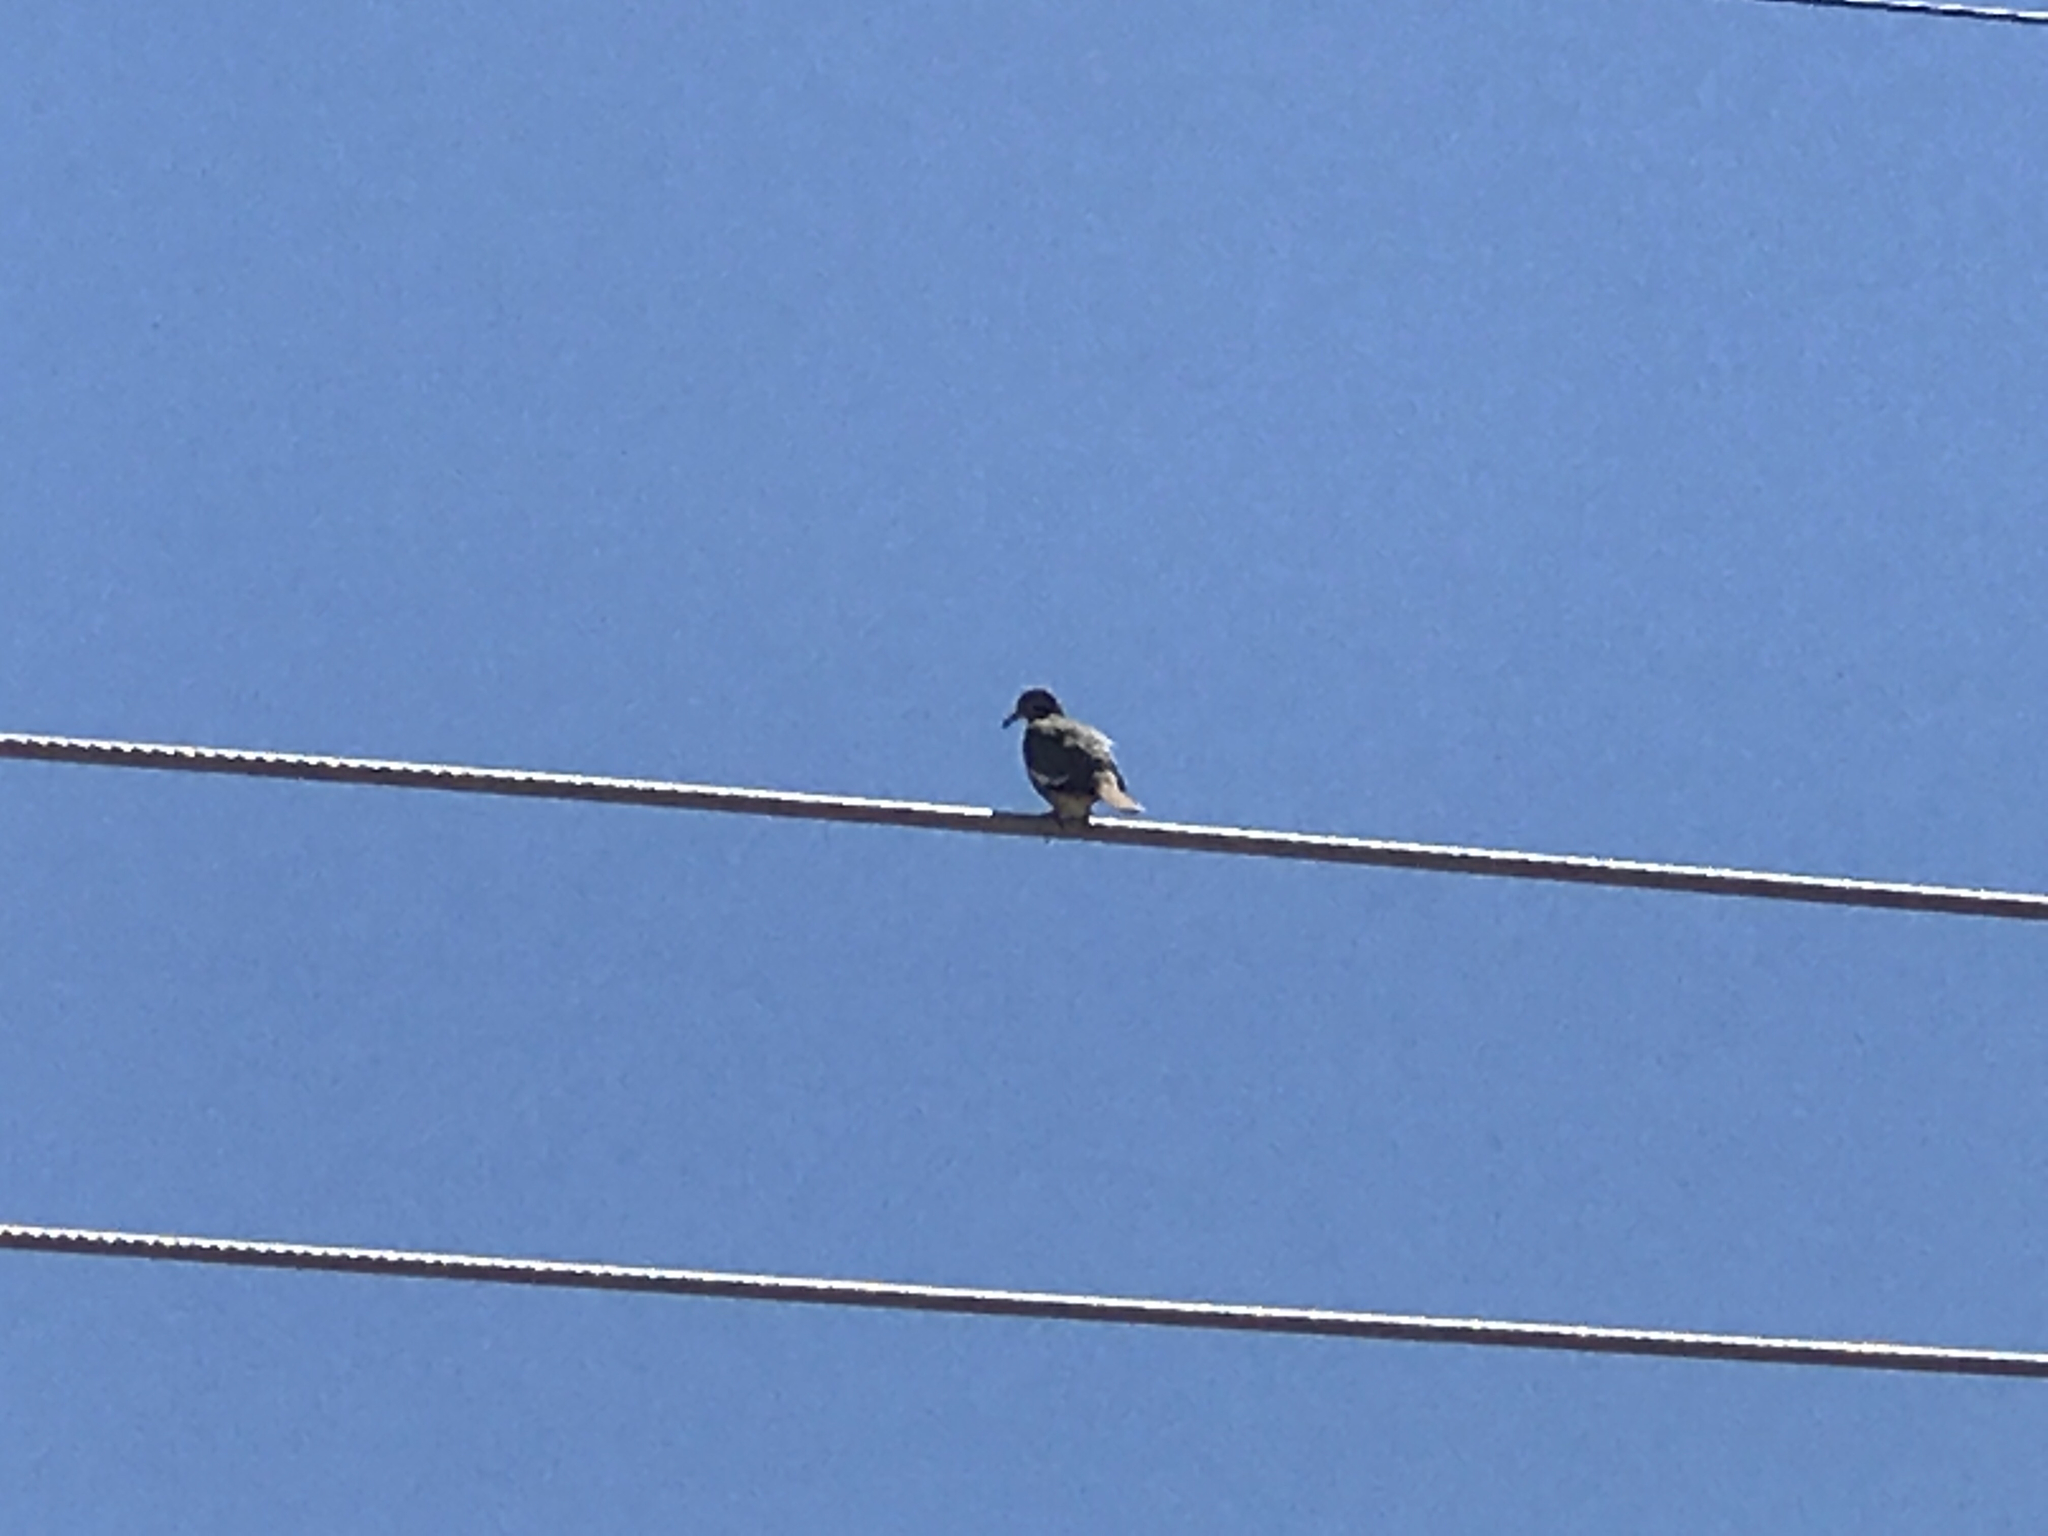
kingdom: Animalia
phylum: Chordata
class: Aves
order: Columbiformes
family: Columbidae
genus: Zenaida
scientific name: Zenaida asiatica
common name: White-winged dove
